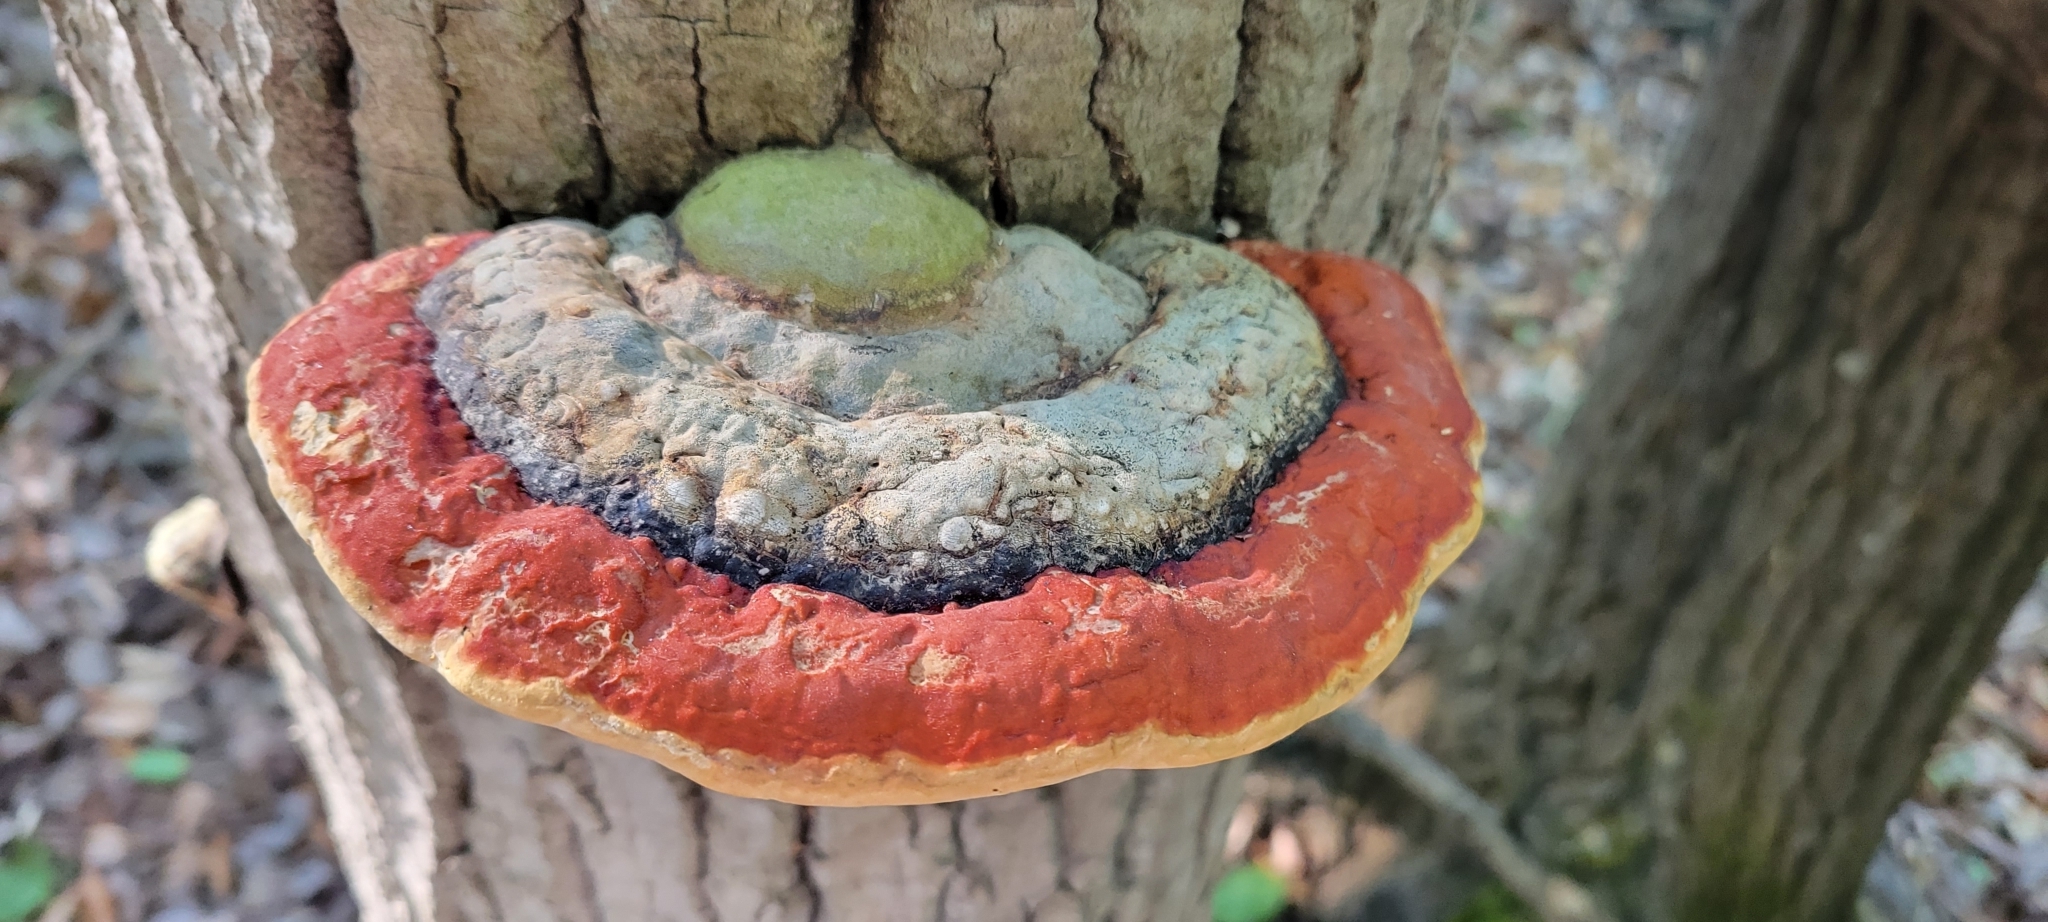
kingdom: Fungi
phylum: Basidiomycota
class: Agaricomycetes
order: Polyporales
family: Fomitopsidaceae
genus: Fomitopsis
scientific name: Fomitopsis mounceae
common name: Northern red belt
